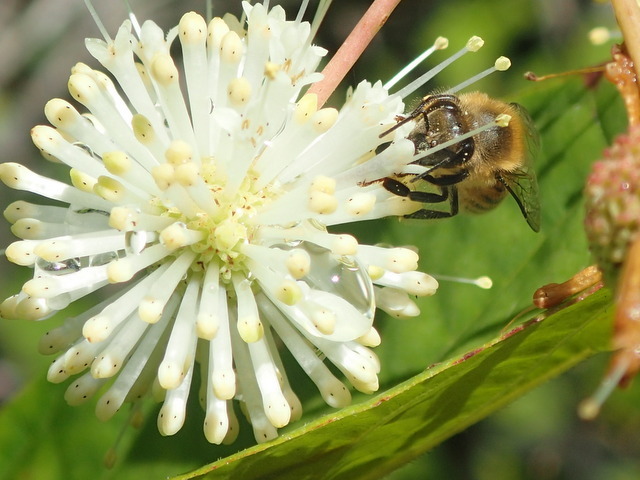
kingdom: Animalia
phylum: Arthropoda
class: Insecta
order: Hymenoptera
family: Apidae
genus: Apis
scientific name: Apis mellifera
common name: Honey bee
